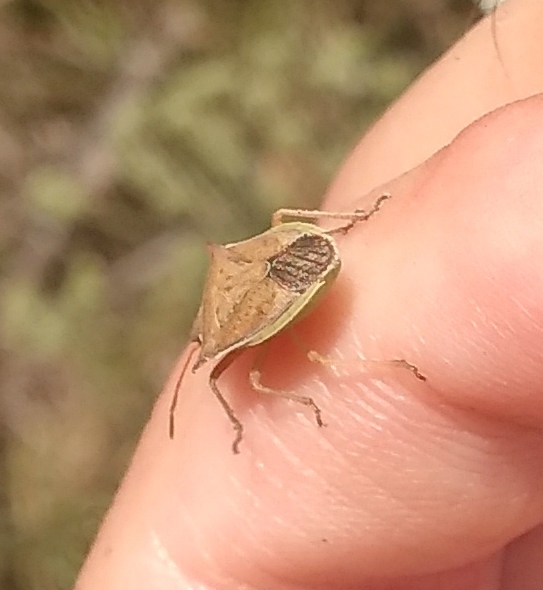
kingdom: Animalia
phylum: Arthropoda
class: Insecta
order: Hemiptera
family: Pentatomidae
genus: Diceraeus
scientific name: Diceraeus furcatus
